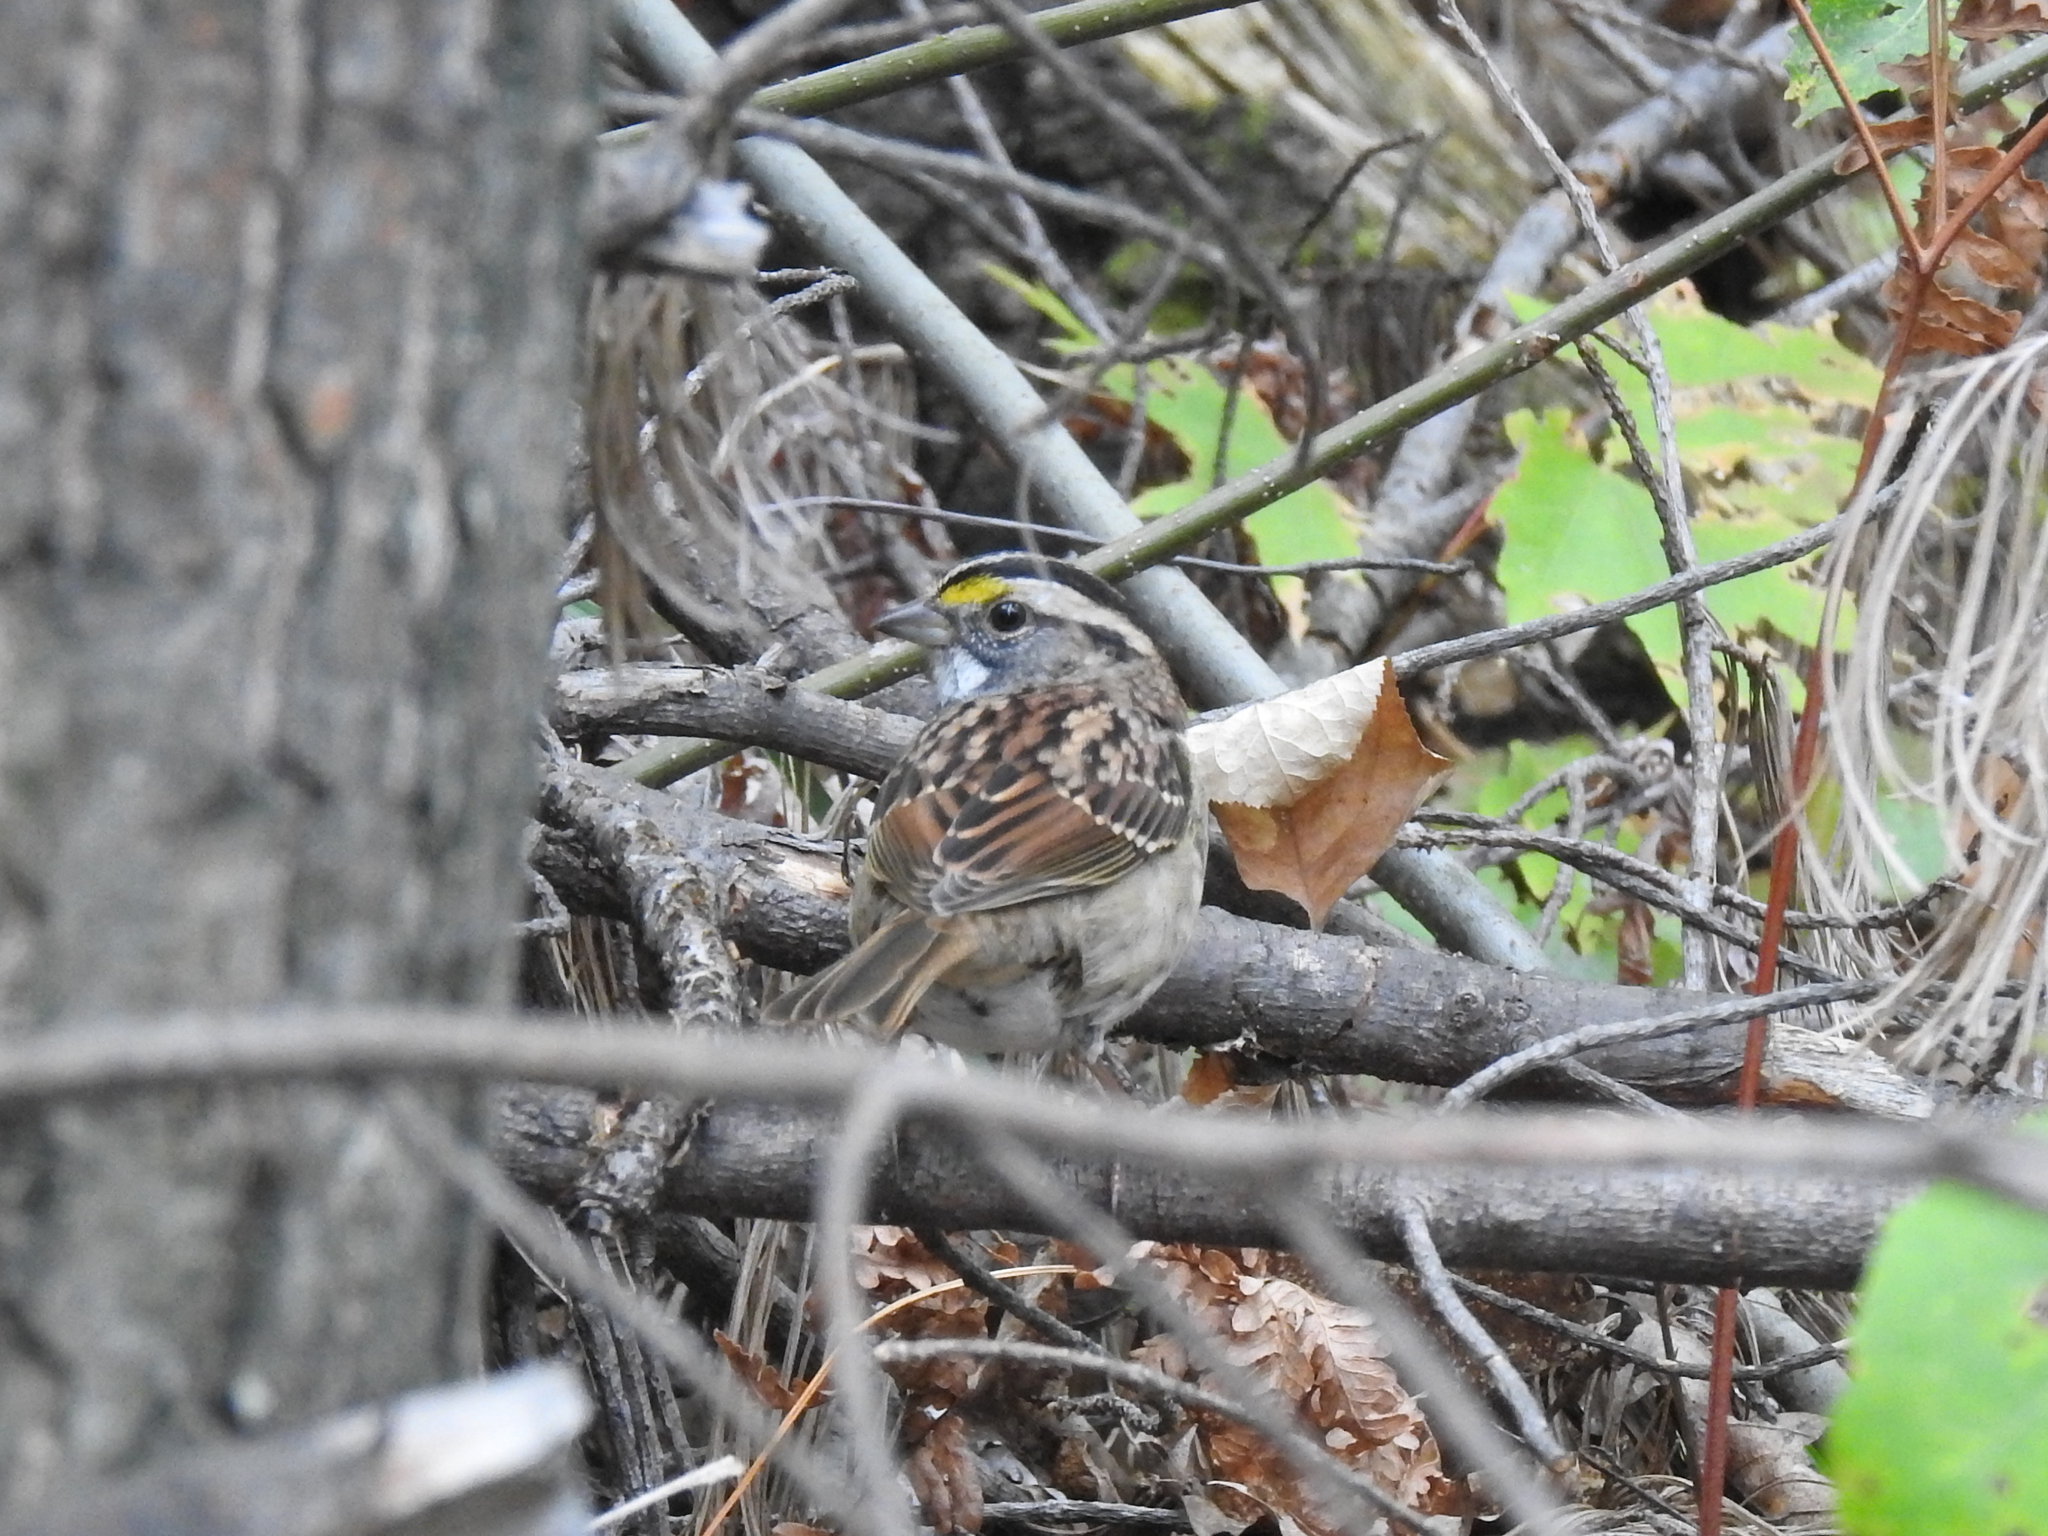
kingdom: Animalia
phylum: Chordata
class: Aves
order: Passeriformes
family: Passerellidae
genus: Zonotrichia
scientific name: Zonotrichia albicollis
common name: White-throated sparrow
